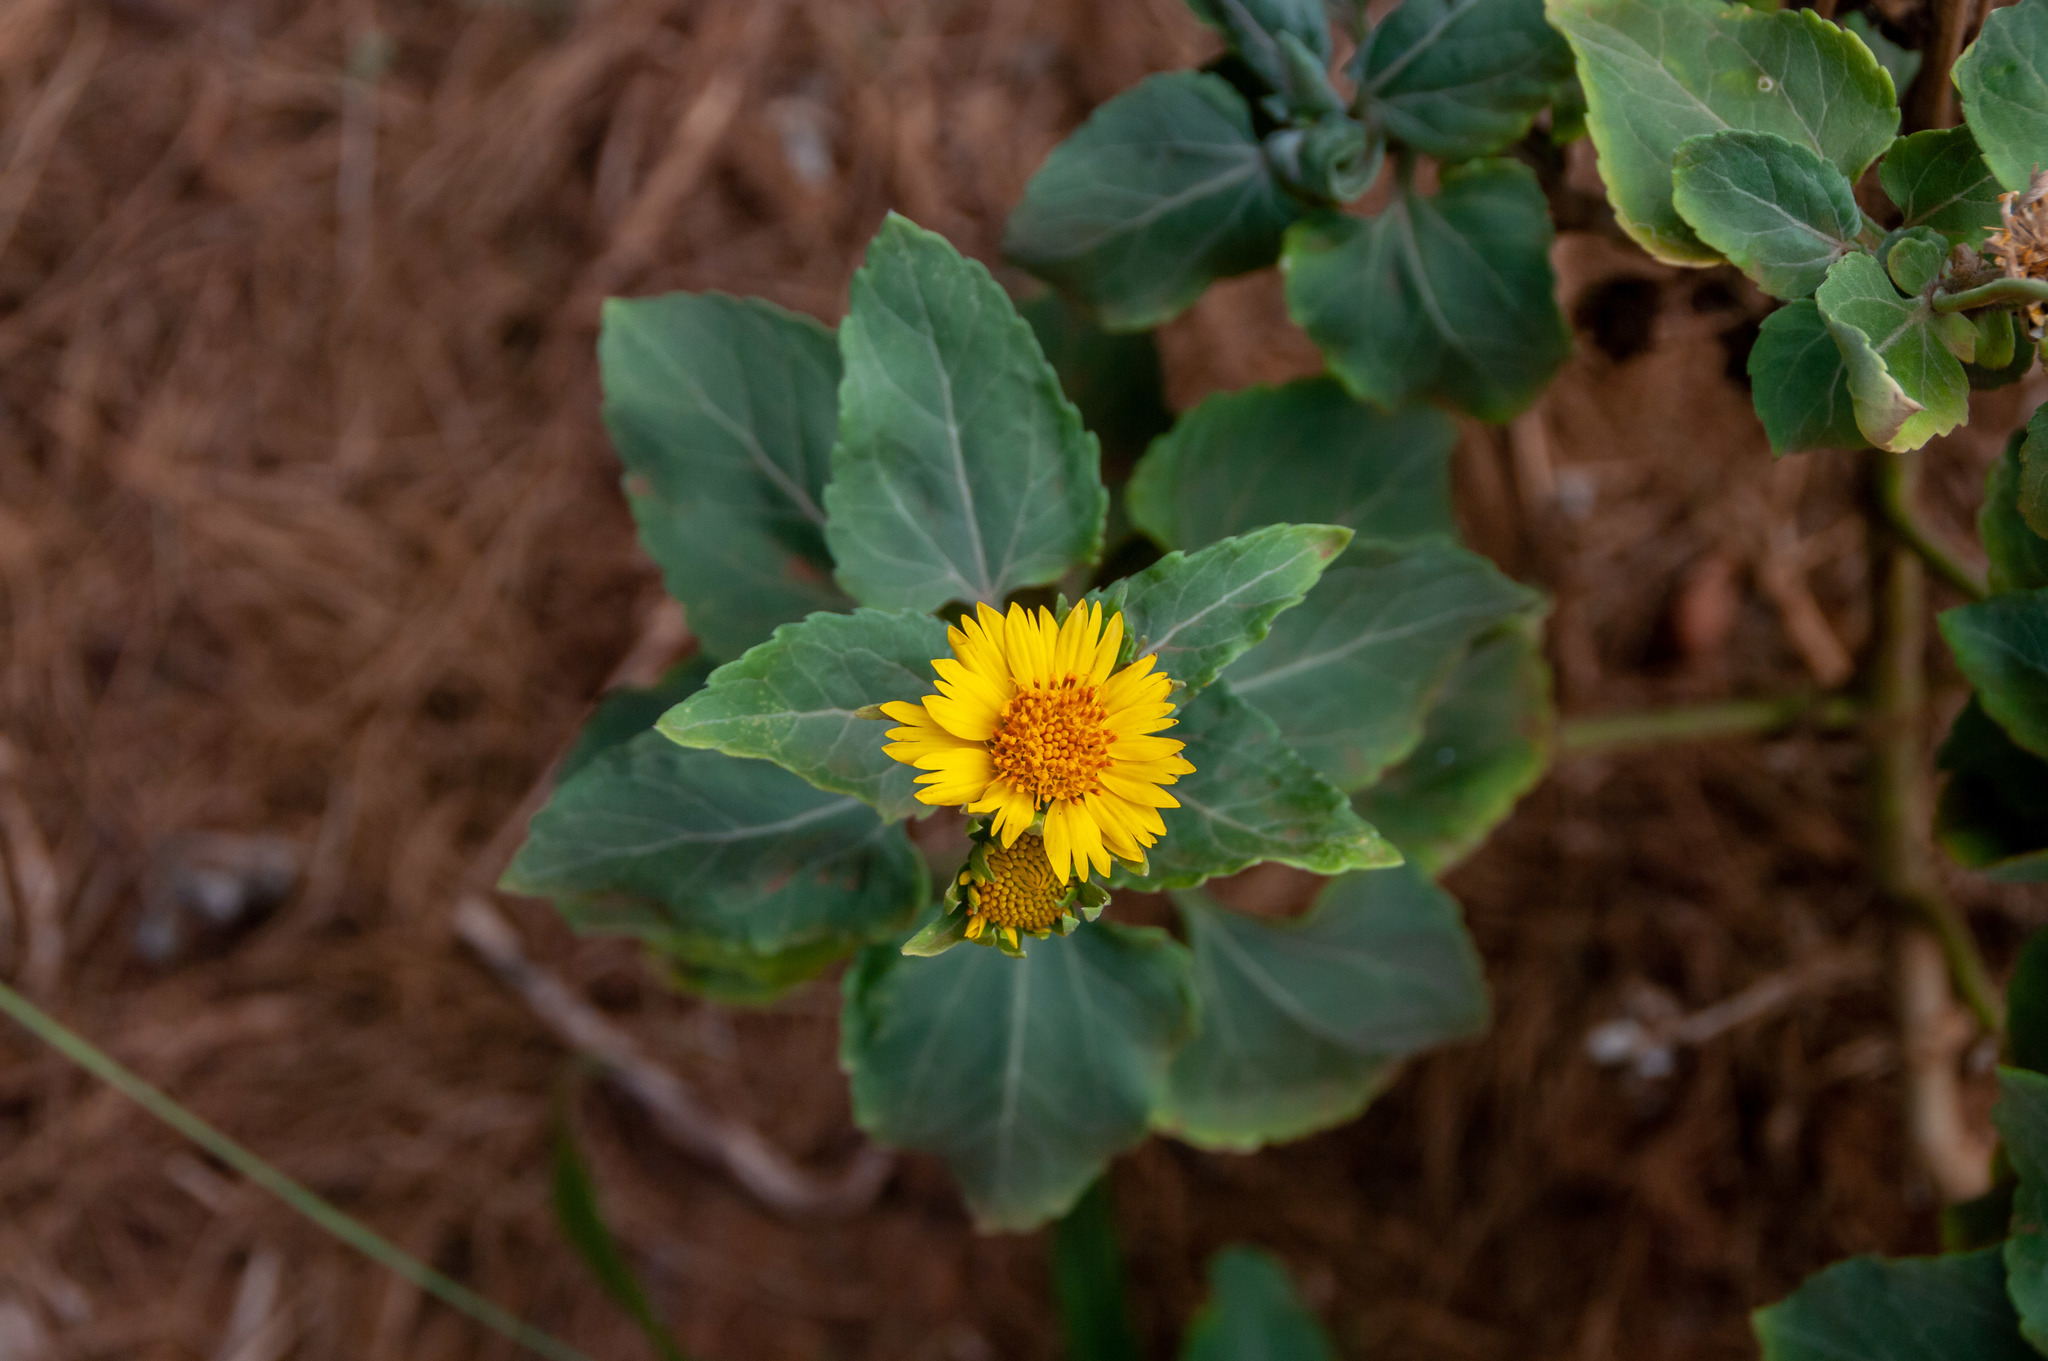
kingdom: Plantae
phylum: Tracheophyta
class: Magnoliopsida
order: Asterales
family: Asteraceae
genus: Verbesina
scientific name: Verbesina encelioides
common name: Golden crownbeard
